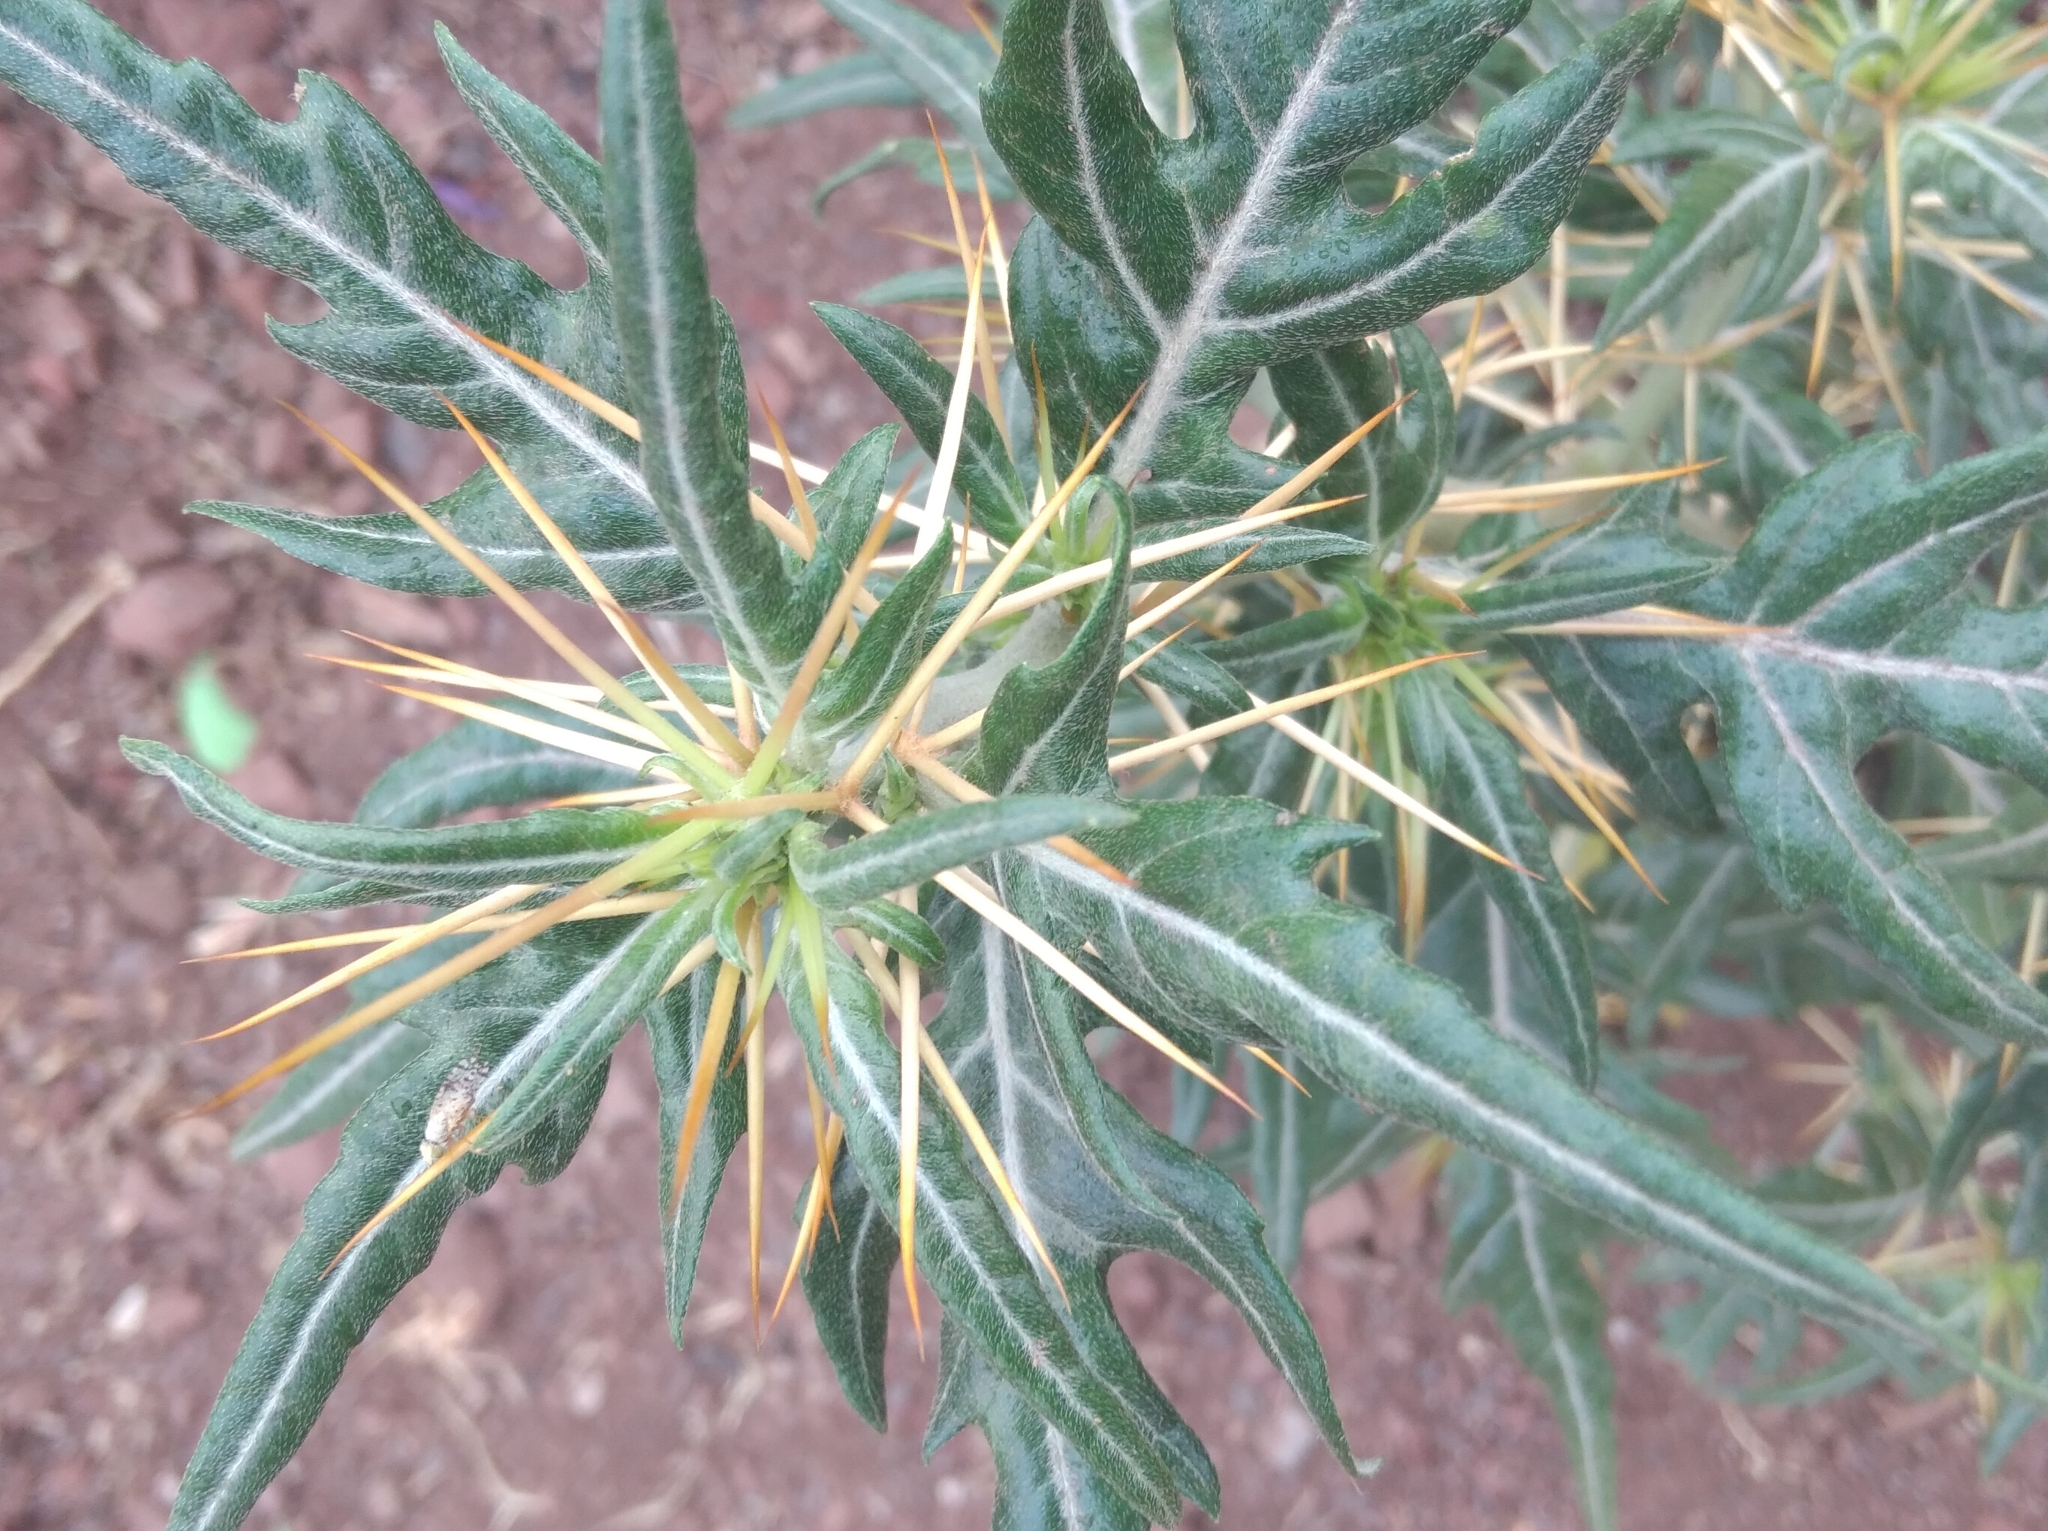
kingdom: Plantae
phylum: Tracheophyta
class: Magnoliopsida
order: Asterales
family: Asteraceae
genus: Xanthium
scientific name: Xanthium spinosum
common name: Spiny cocklebur
